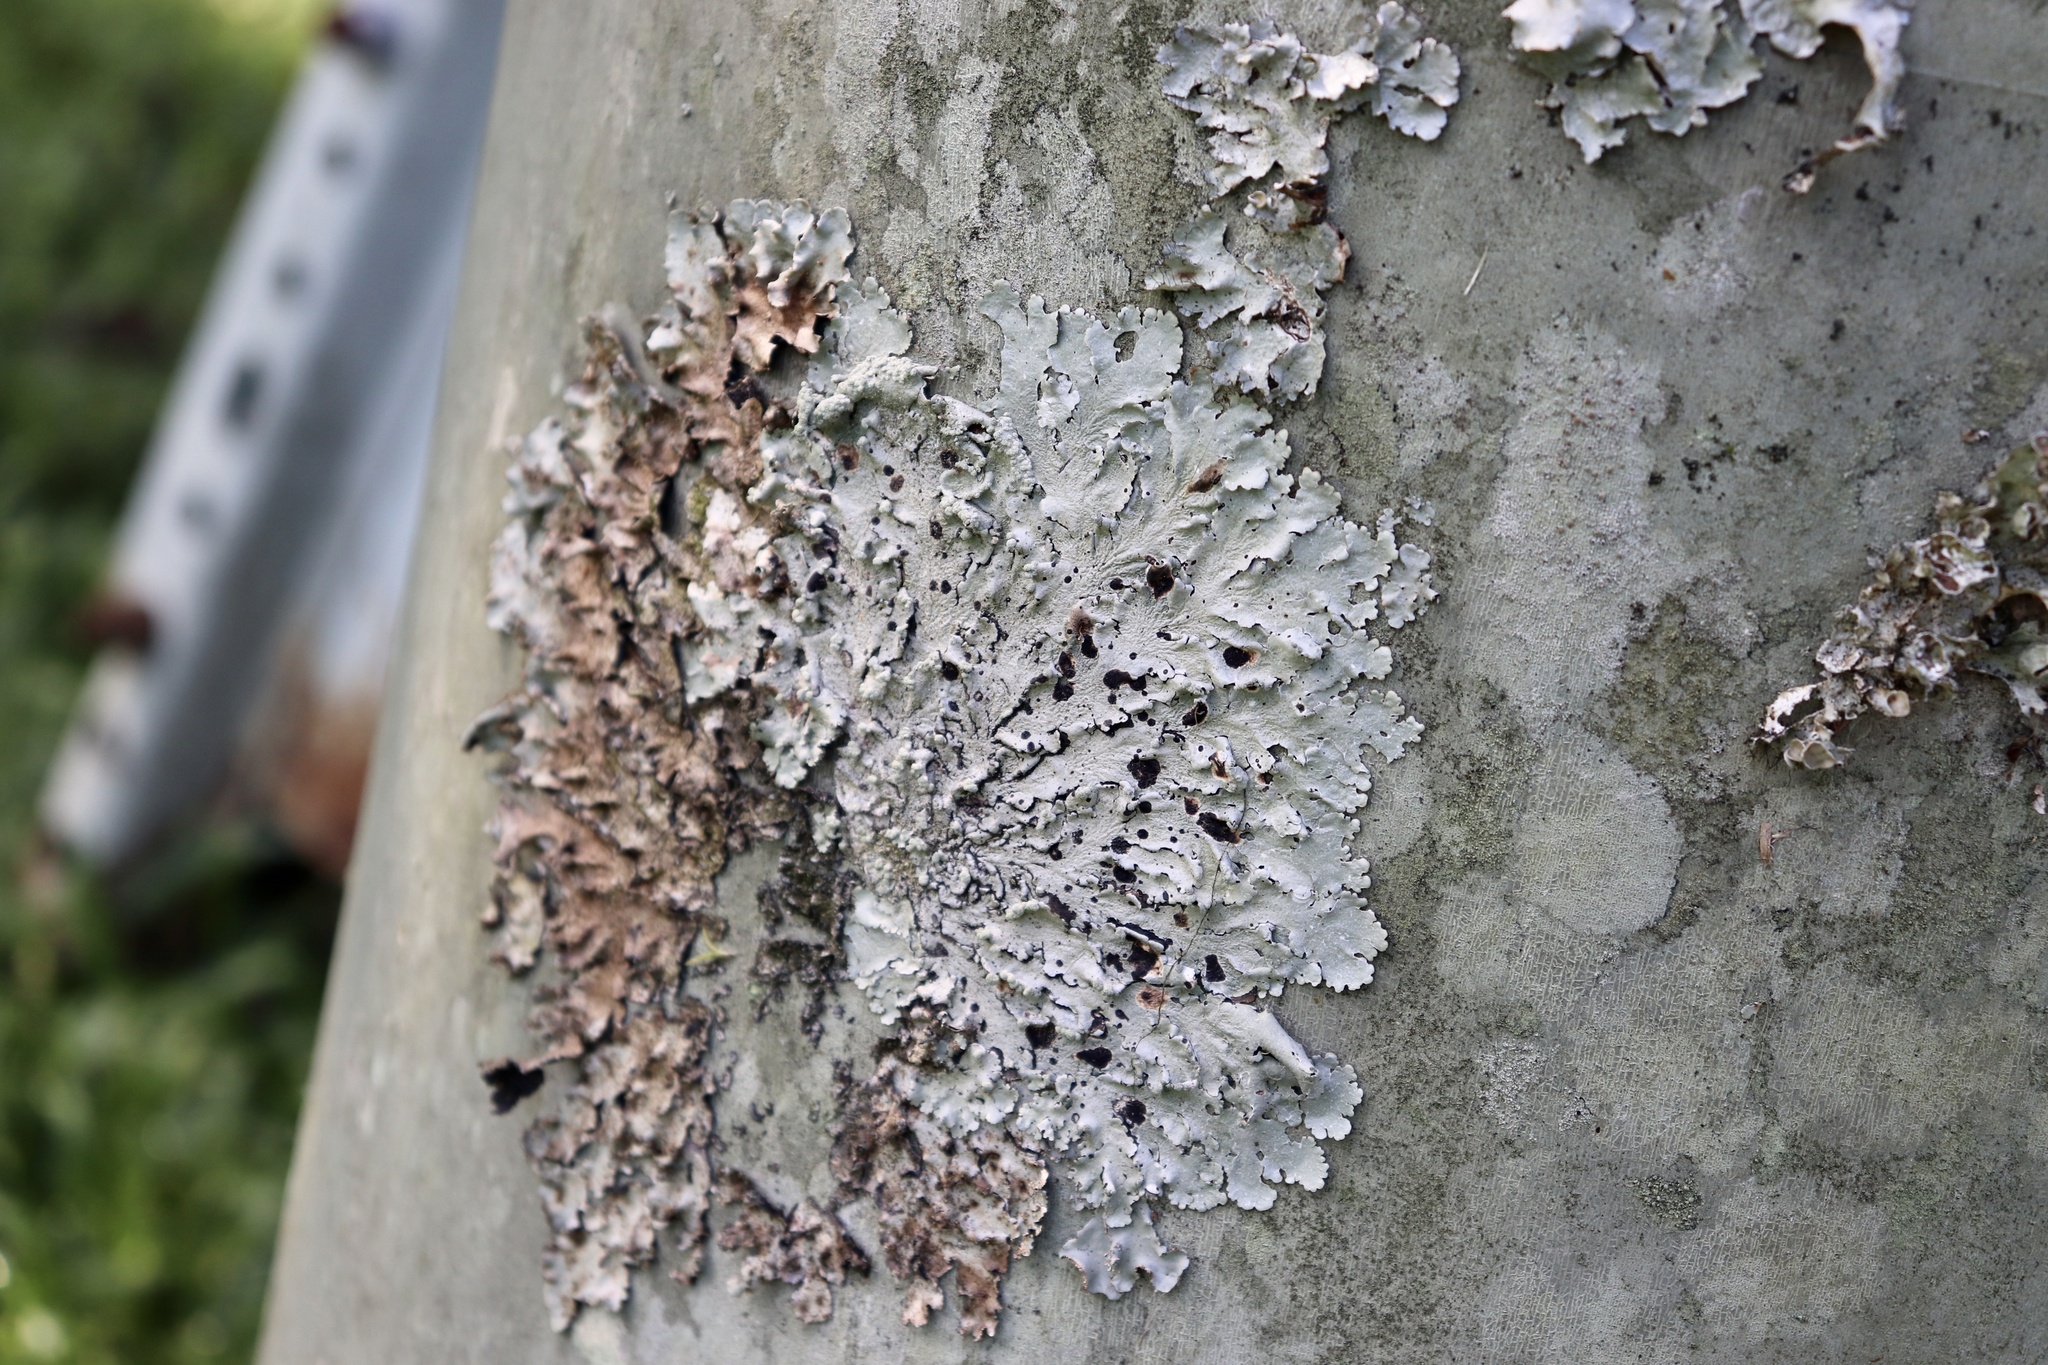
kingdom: Fungi
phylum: Ascomycota
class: Lecanoromycetes
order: Lecanorales
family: Parmeliaceae
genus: Canoparmelia
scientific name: Canoparmelia cryptochlorophaea
